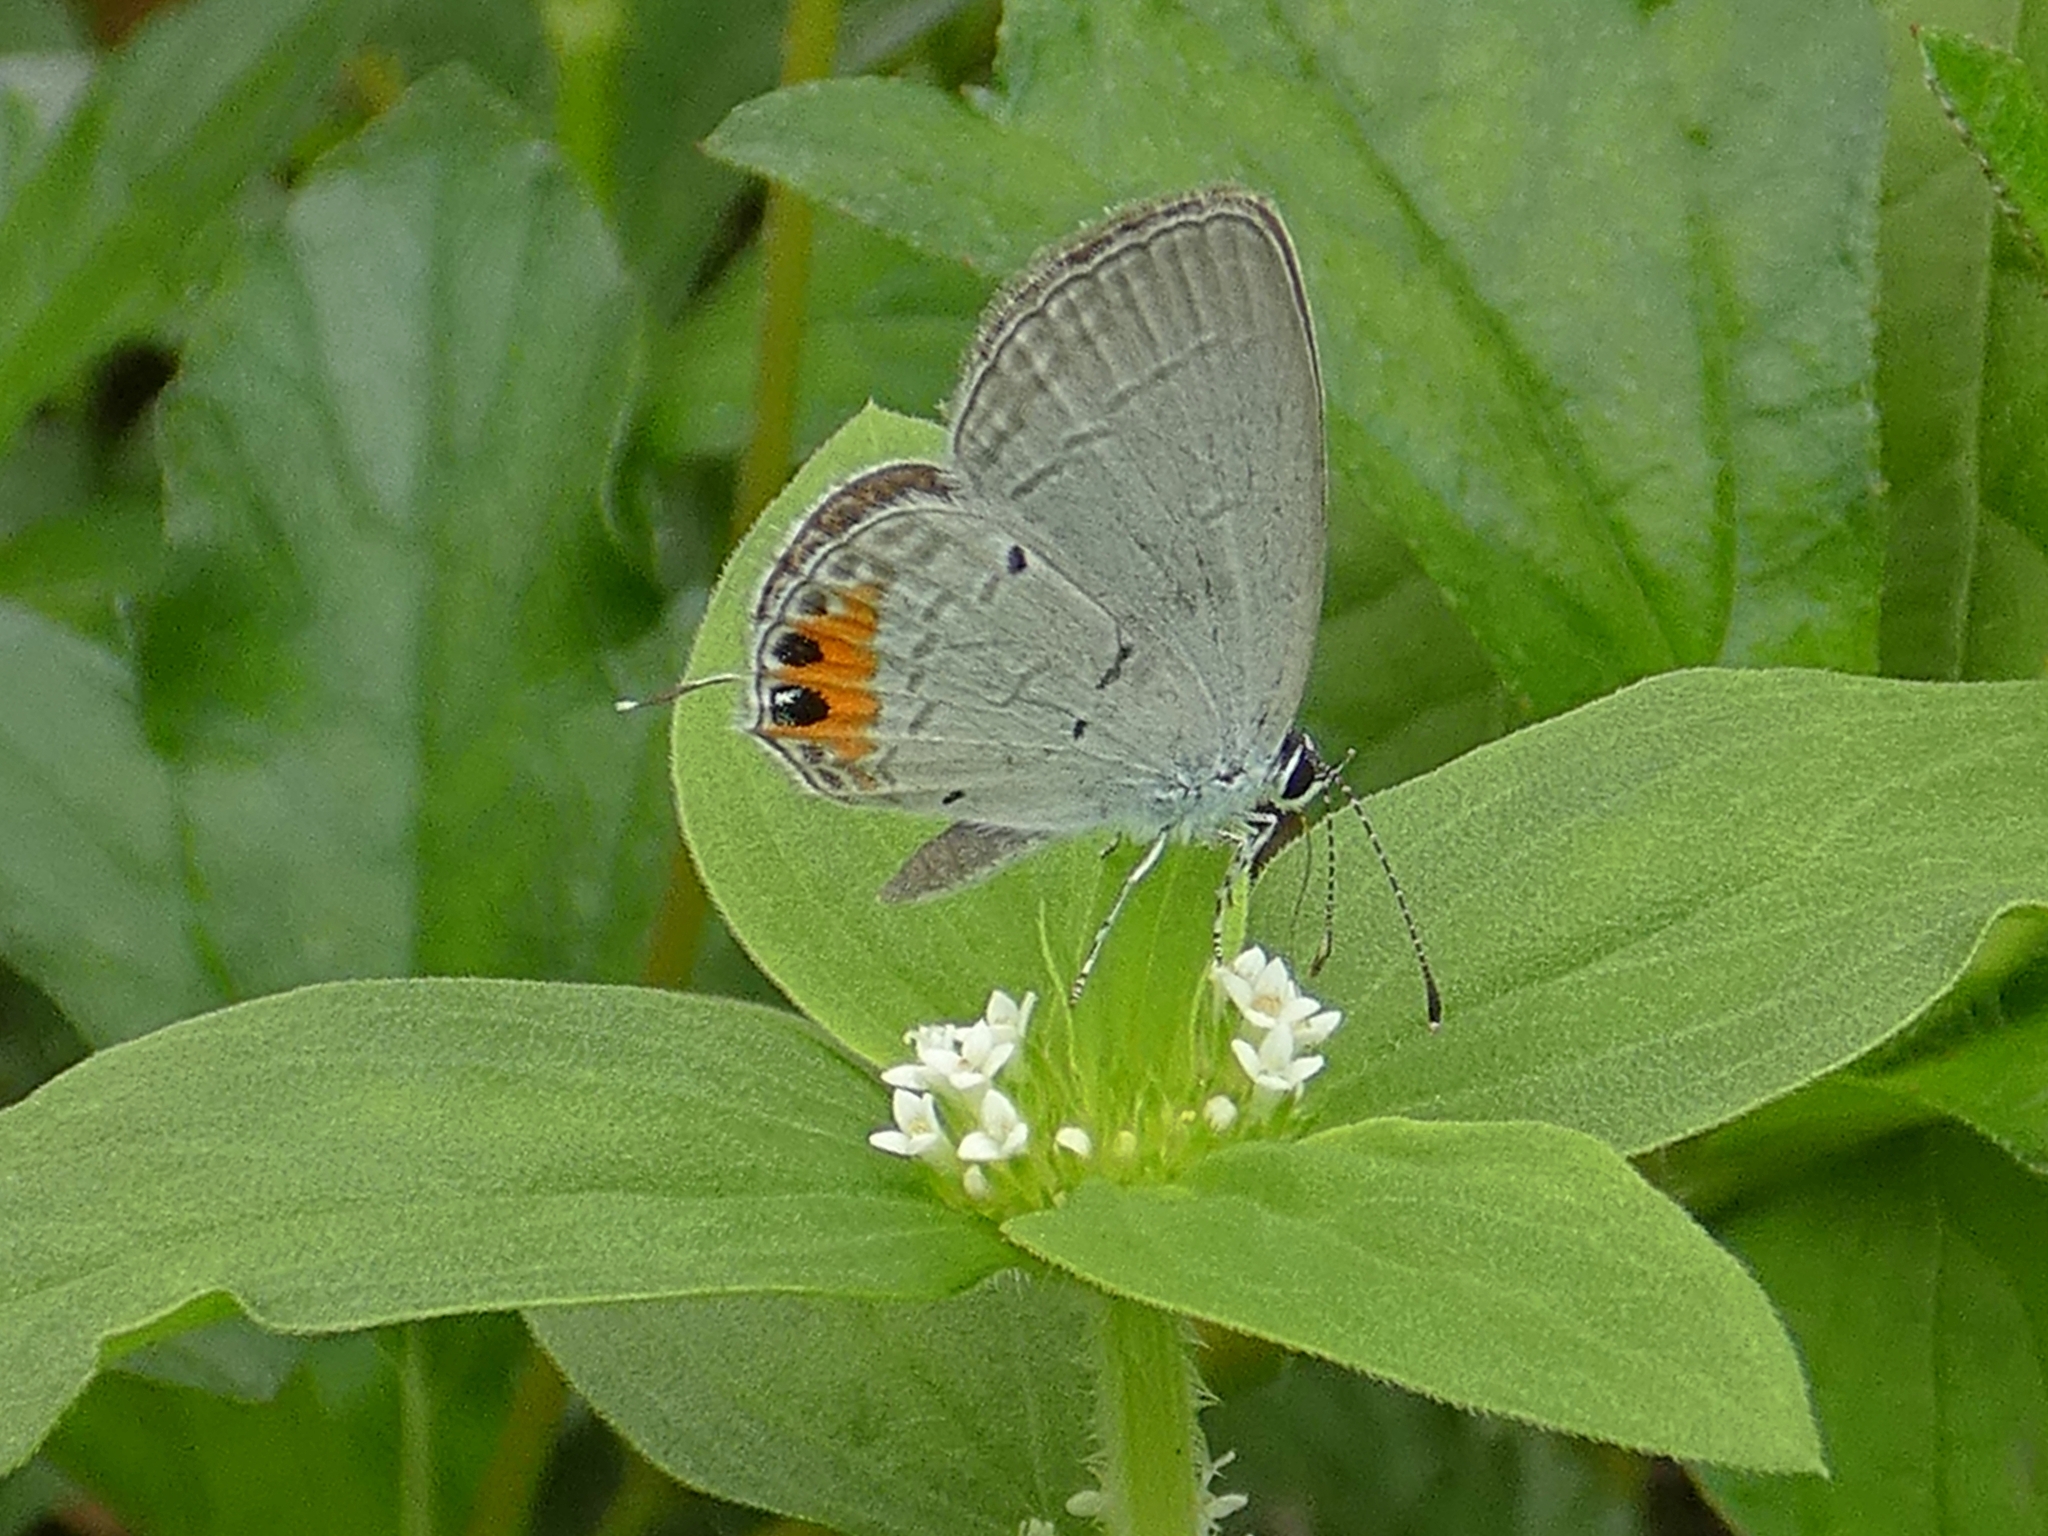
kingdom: Animalia
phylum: Arthropoda
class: Insecta
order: Lepidoptera
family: Lycaenidae
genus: Everes
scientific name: Everes lacturnus
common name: Orange-tipped pea-blue
